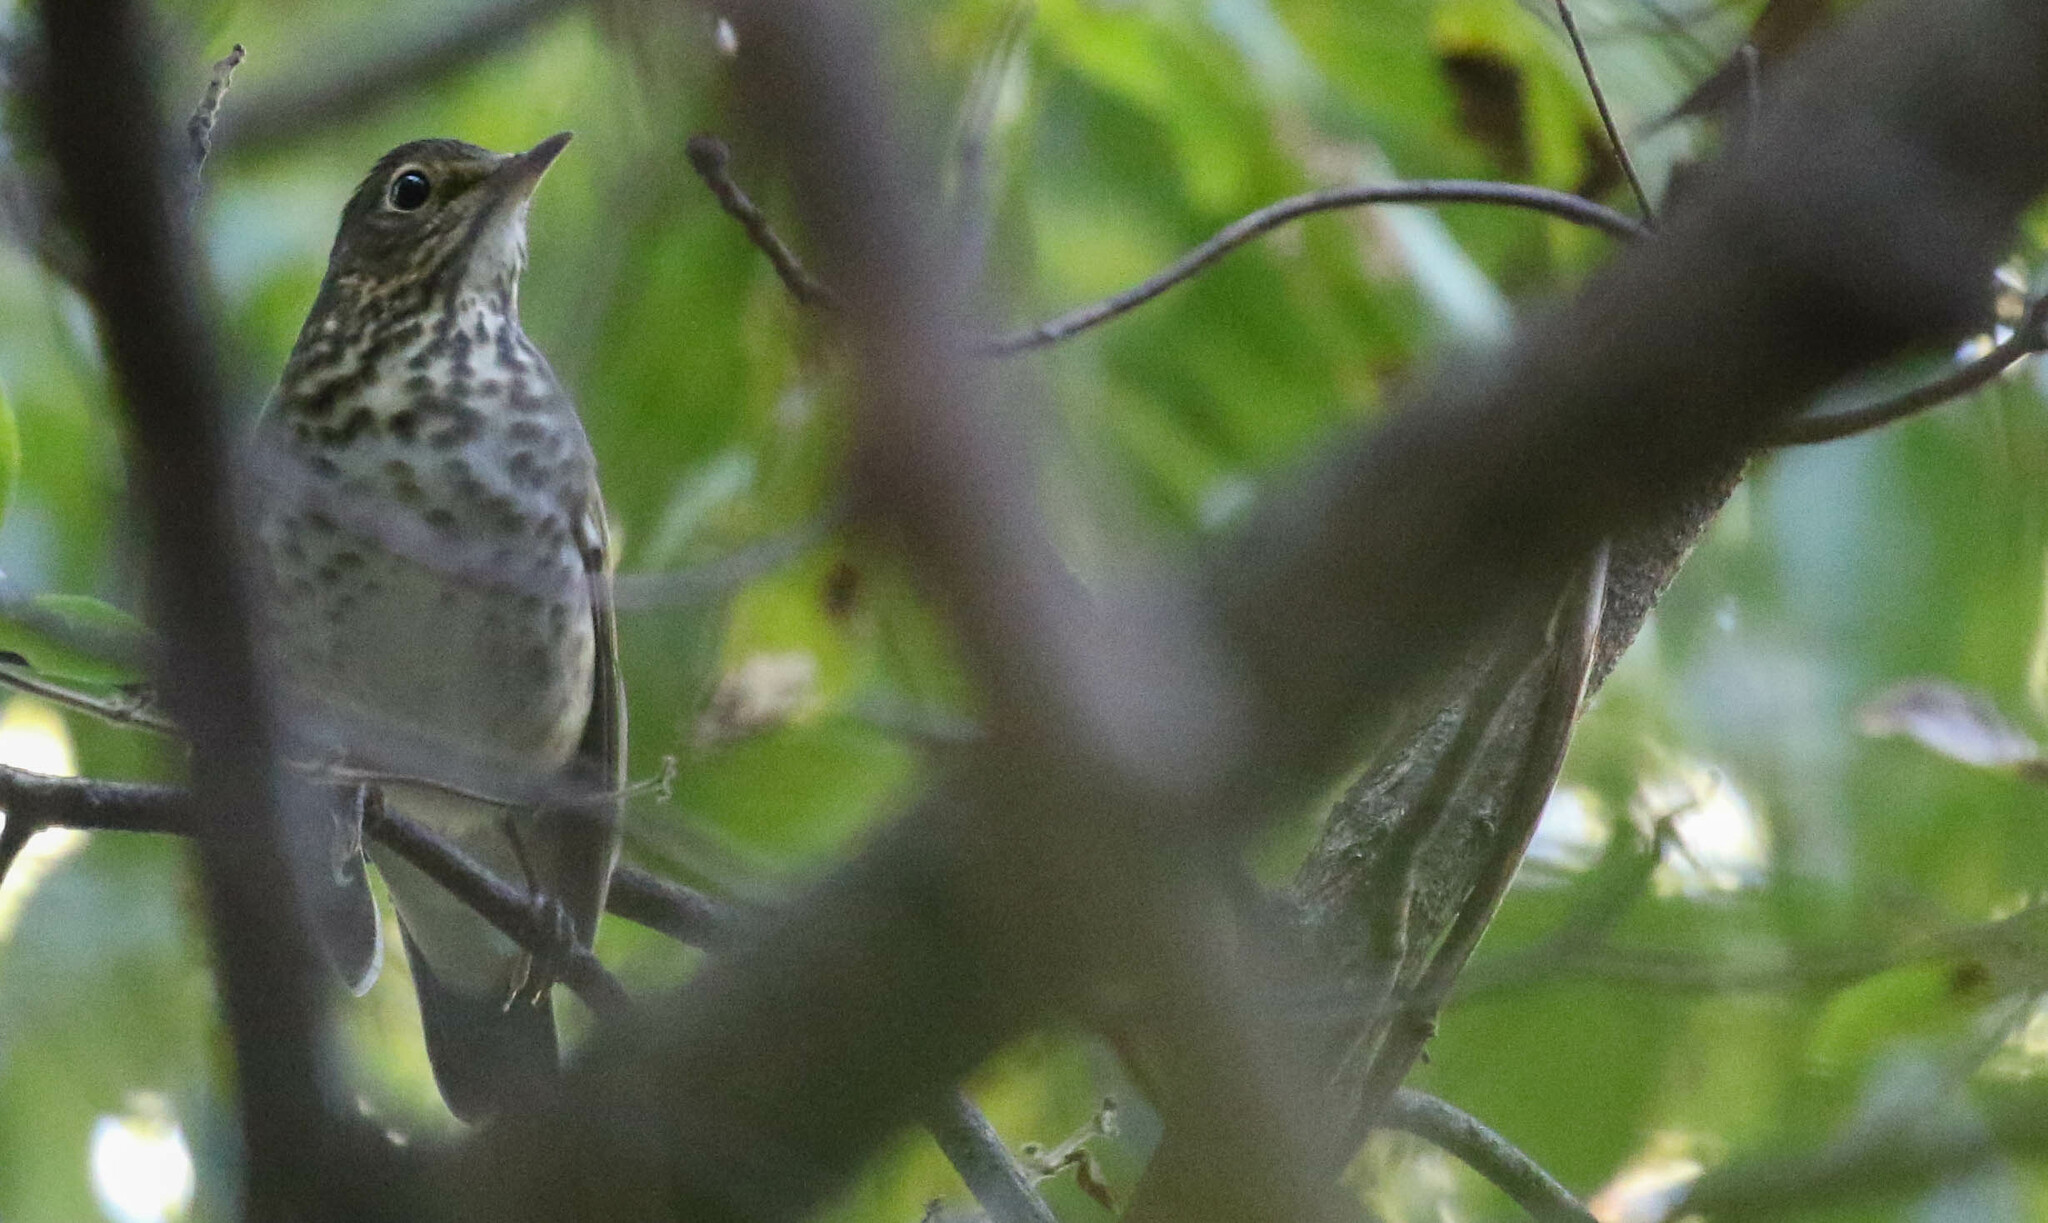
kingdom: Animalia
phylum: Chordata
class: Aves
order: Passeriformes
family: Turdidae
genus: Catharus
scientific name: Catharus ustulatus
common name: Swainson's thrush
